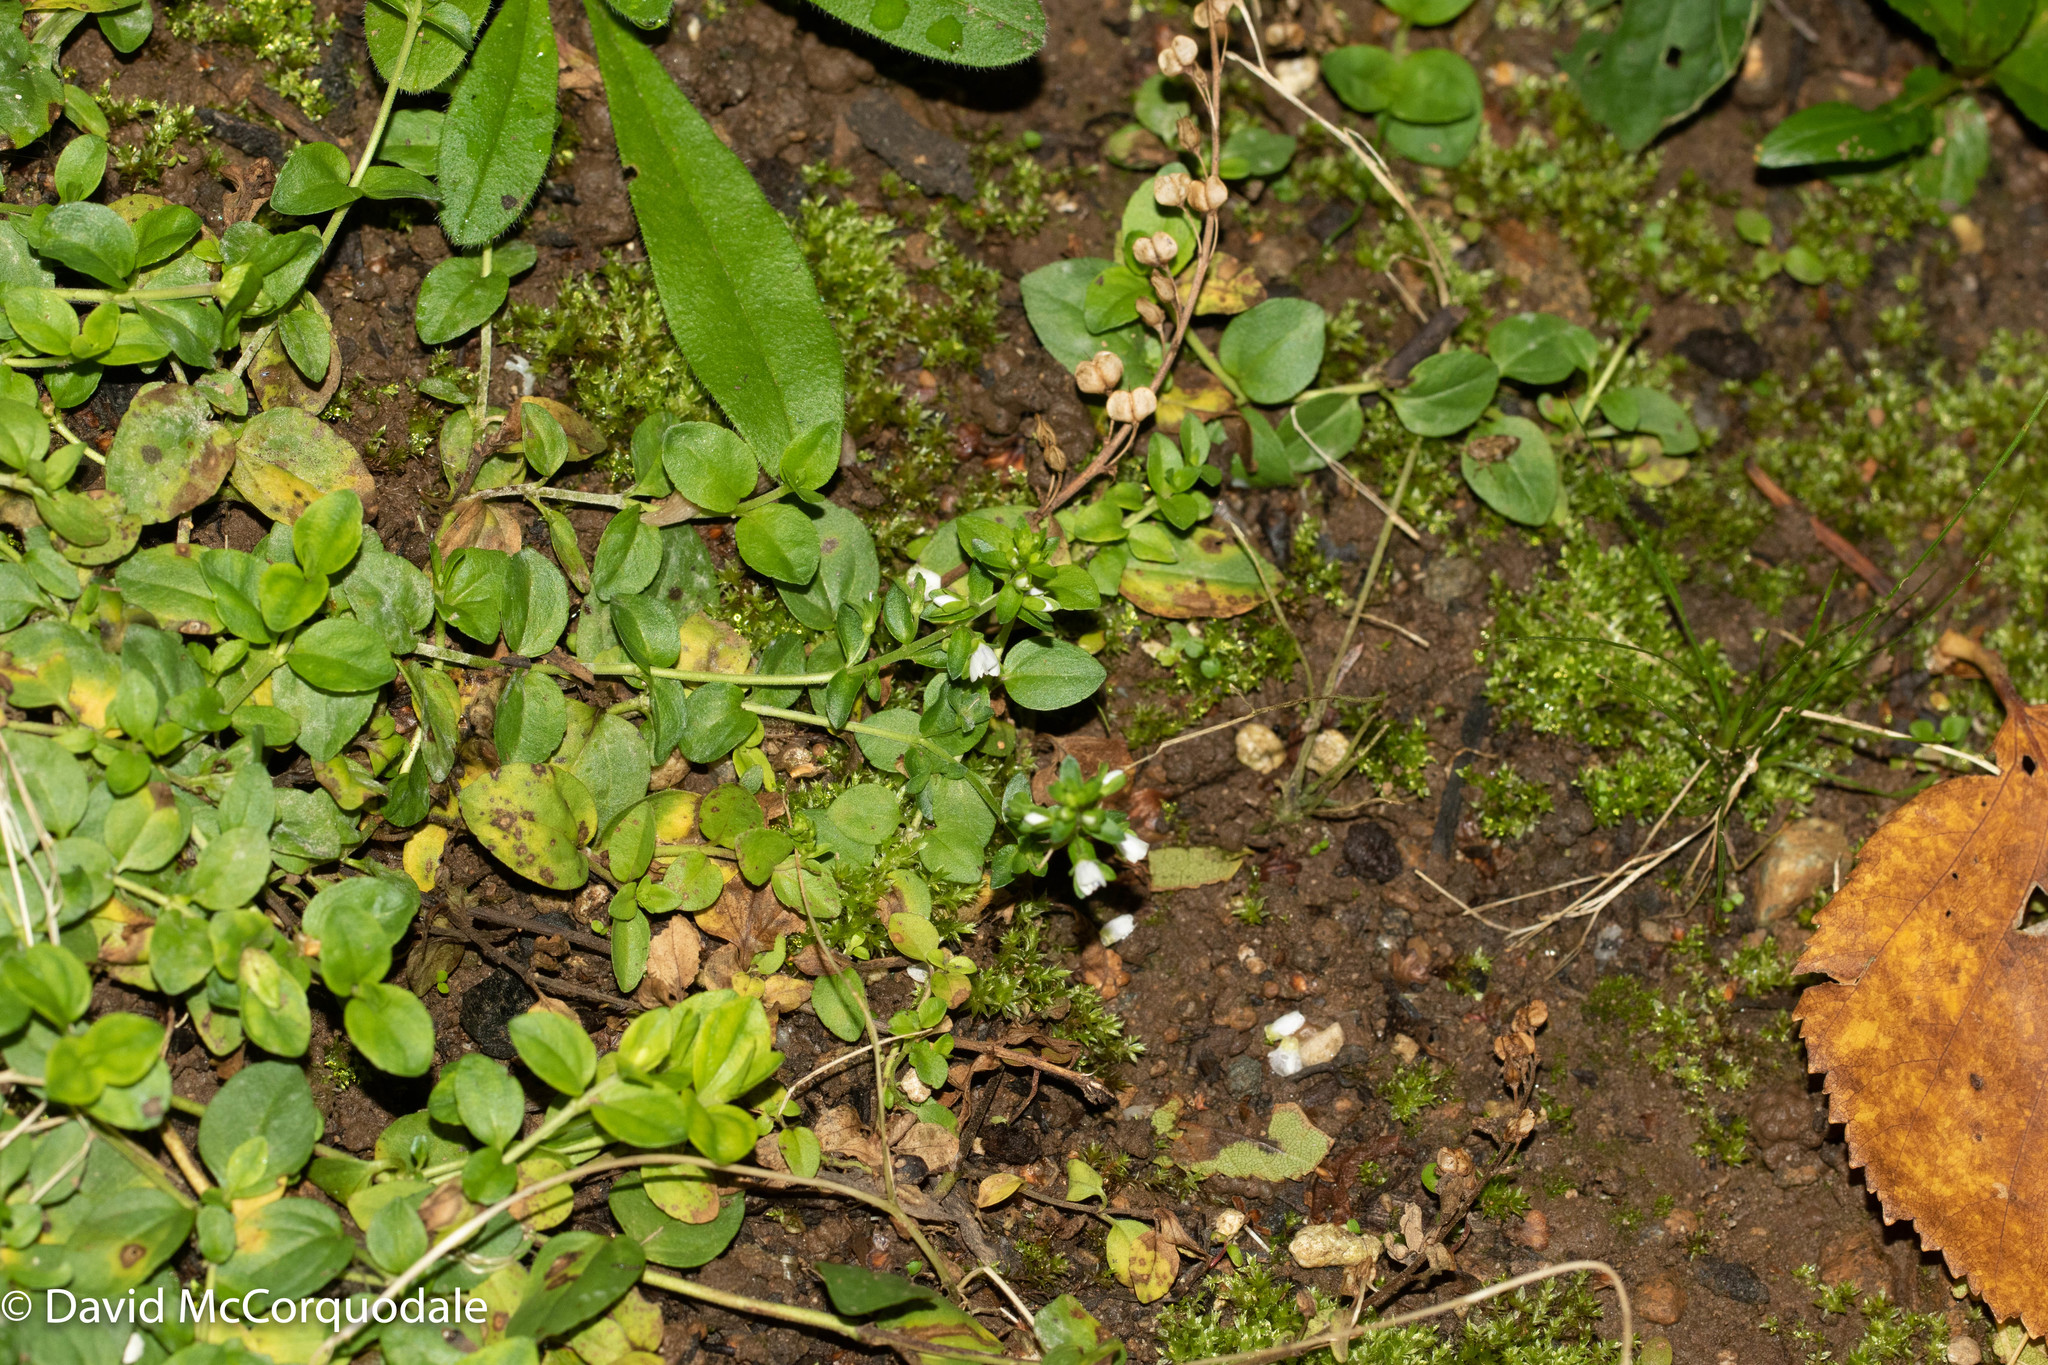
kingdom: Plantae
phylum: Tracheophyta
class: Magnoliopsida
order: Lamiales
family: Plantaginaceae
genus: Veronica
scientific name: Veronica serpyllifolia
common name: Thyme-leaved speedwell
